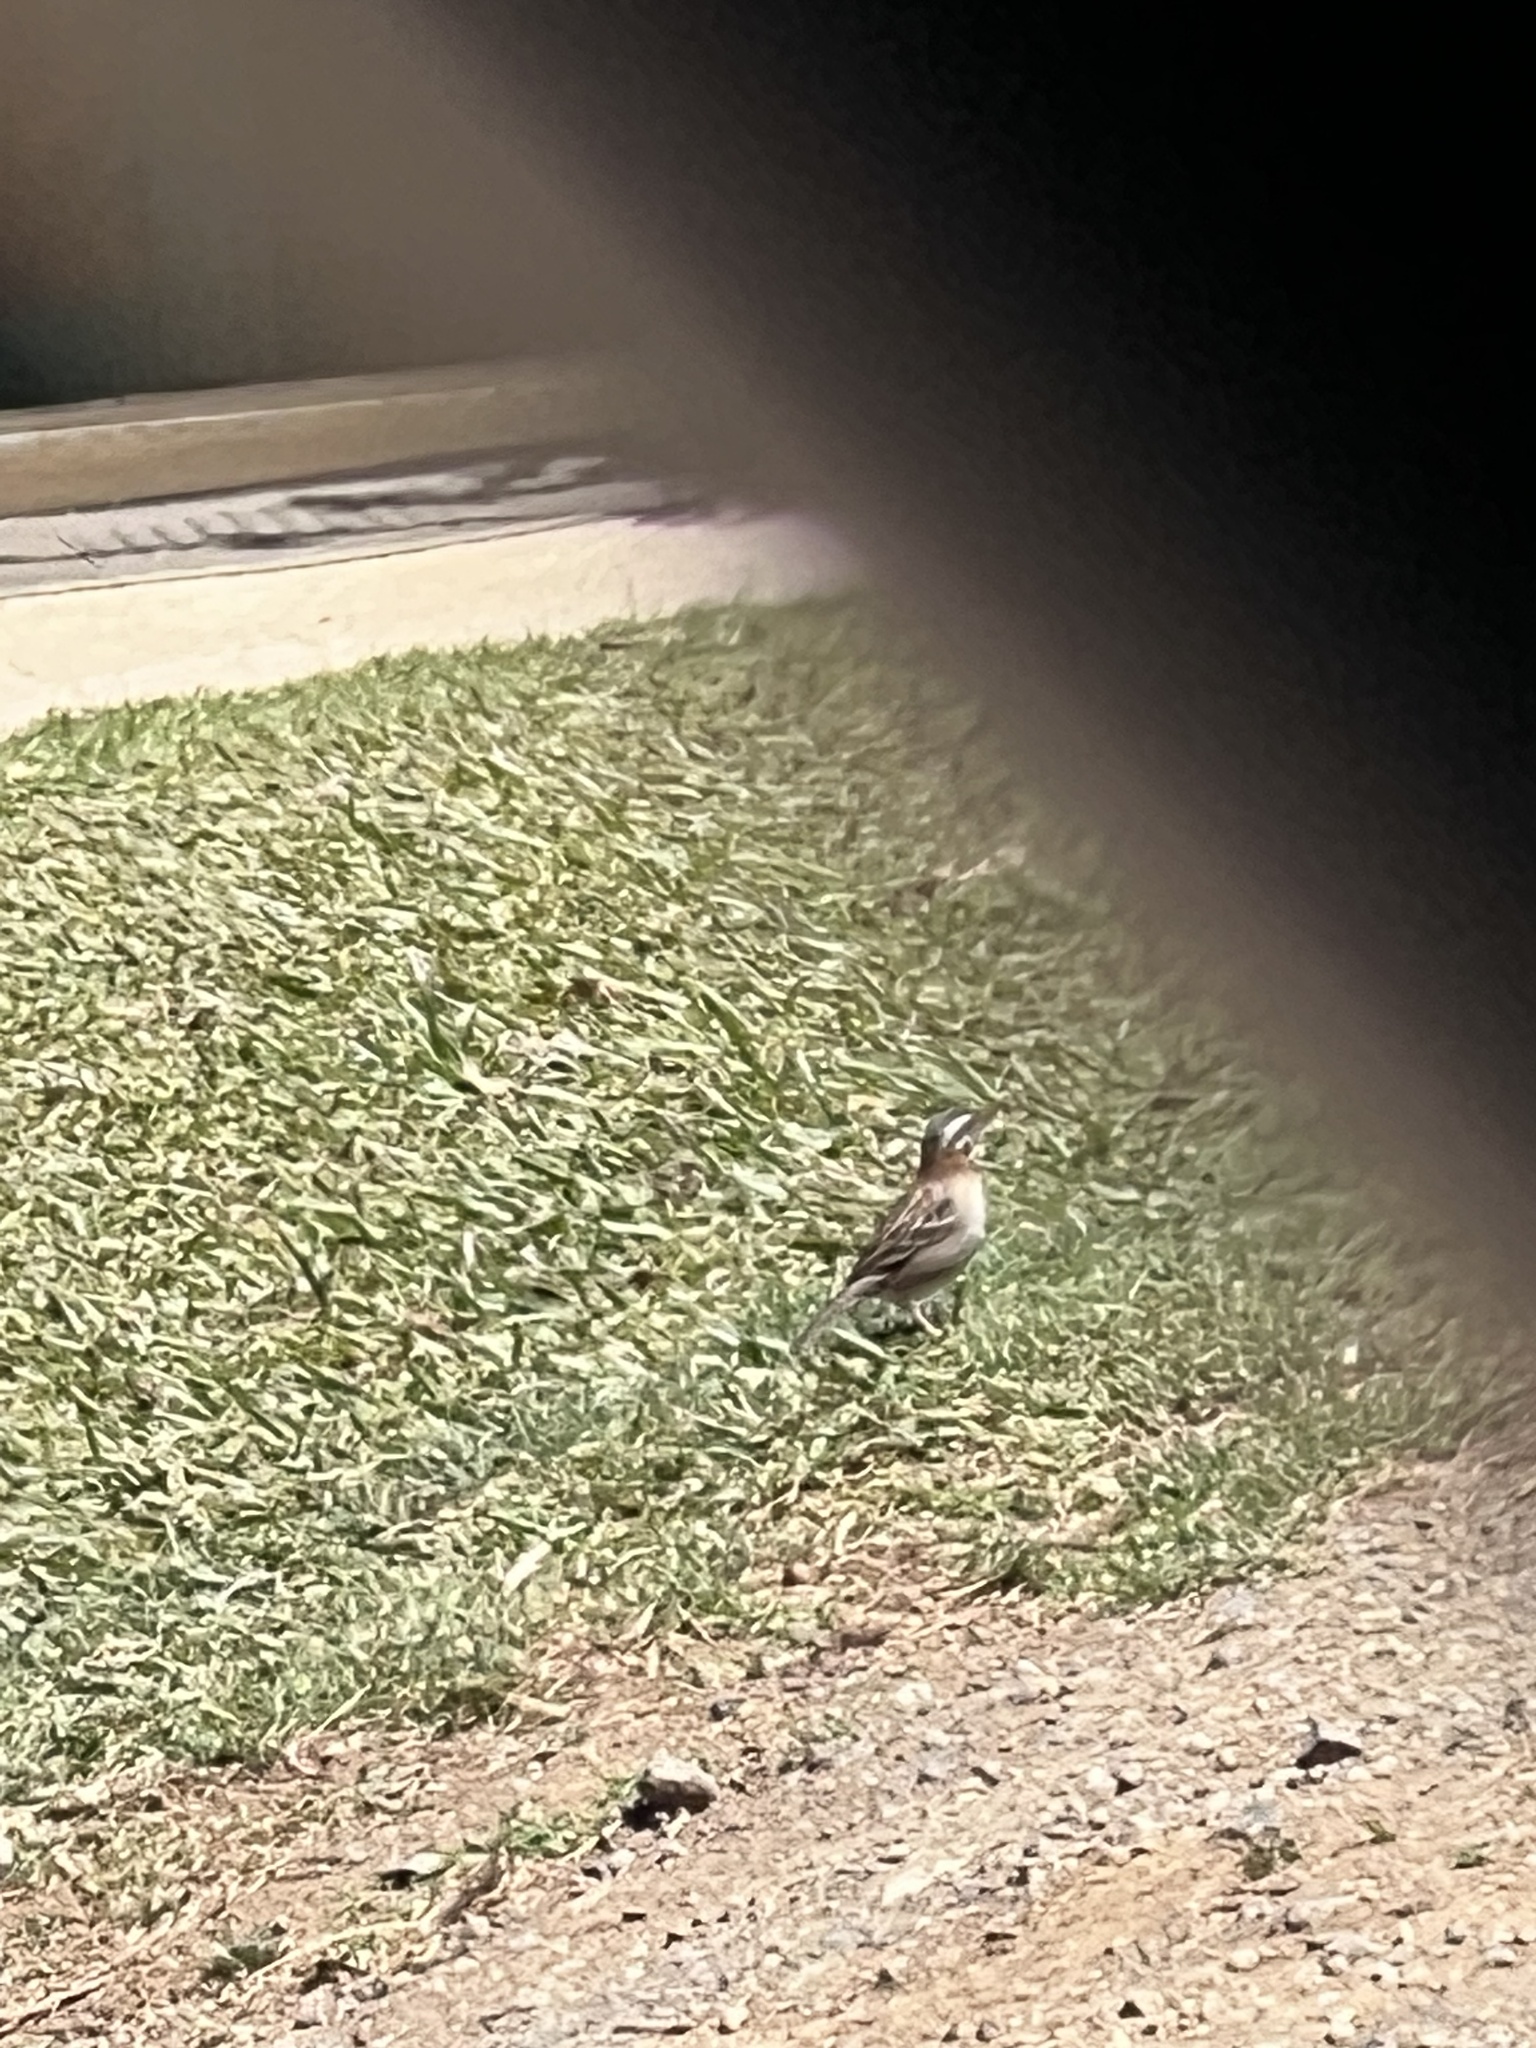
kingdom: Animalia
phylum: Chordata
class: Aves
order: Passeriformes
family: Passerellidae
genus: Zonotrichia
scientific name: Zonotrichia capensis
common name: Rufous-collared sparrow
